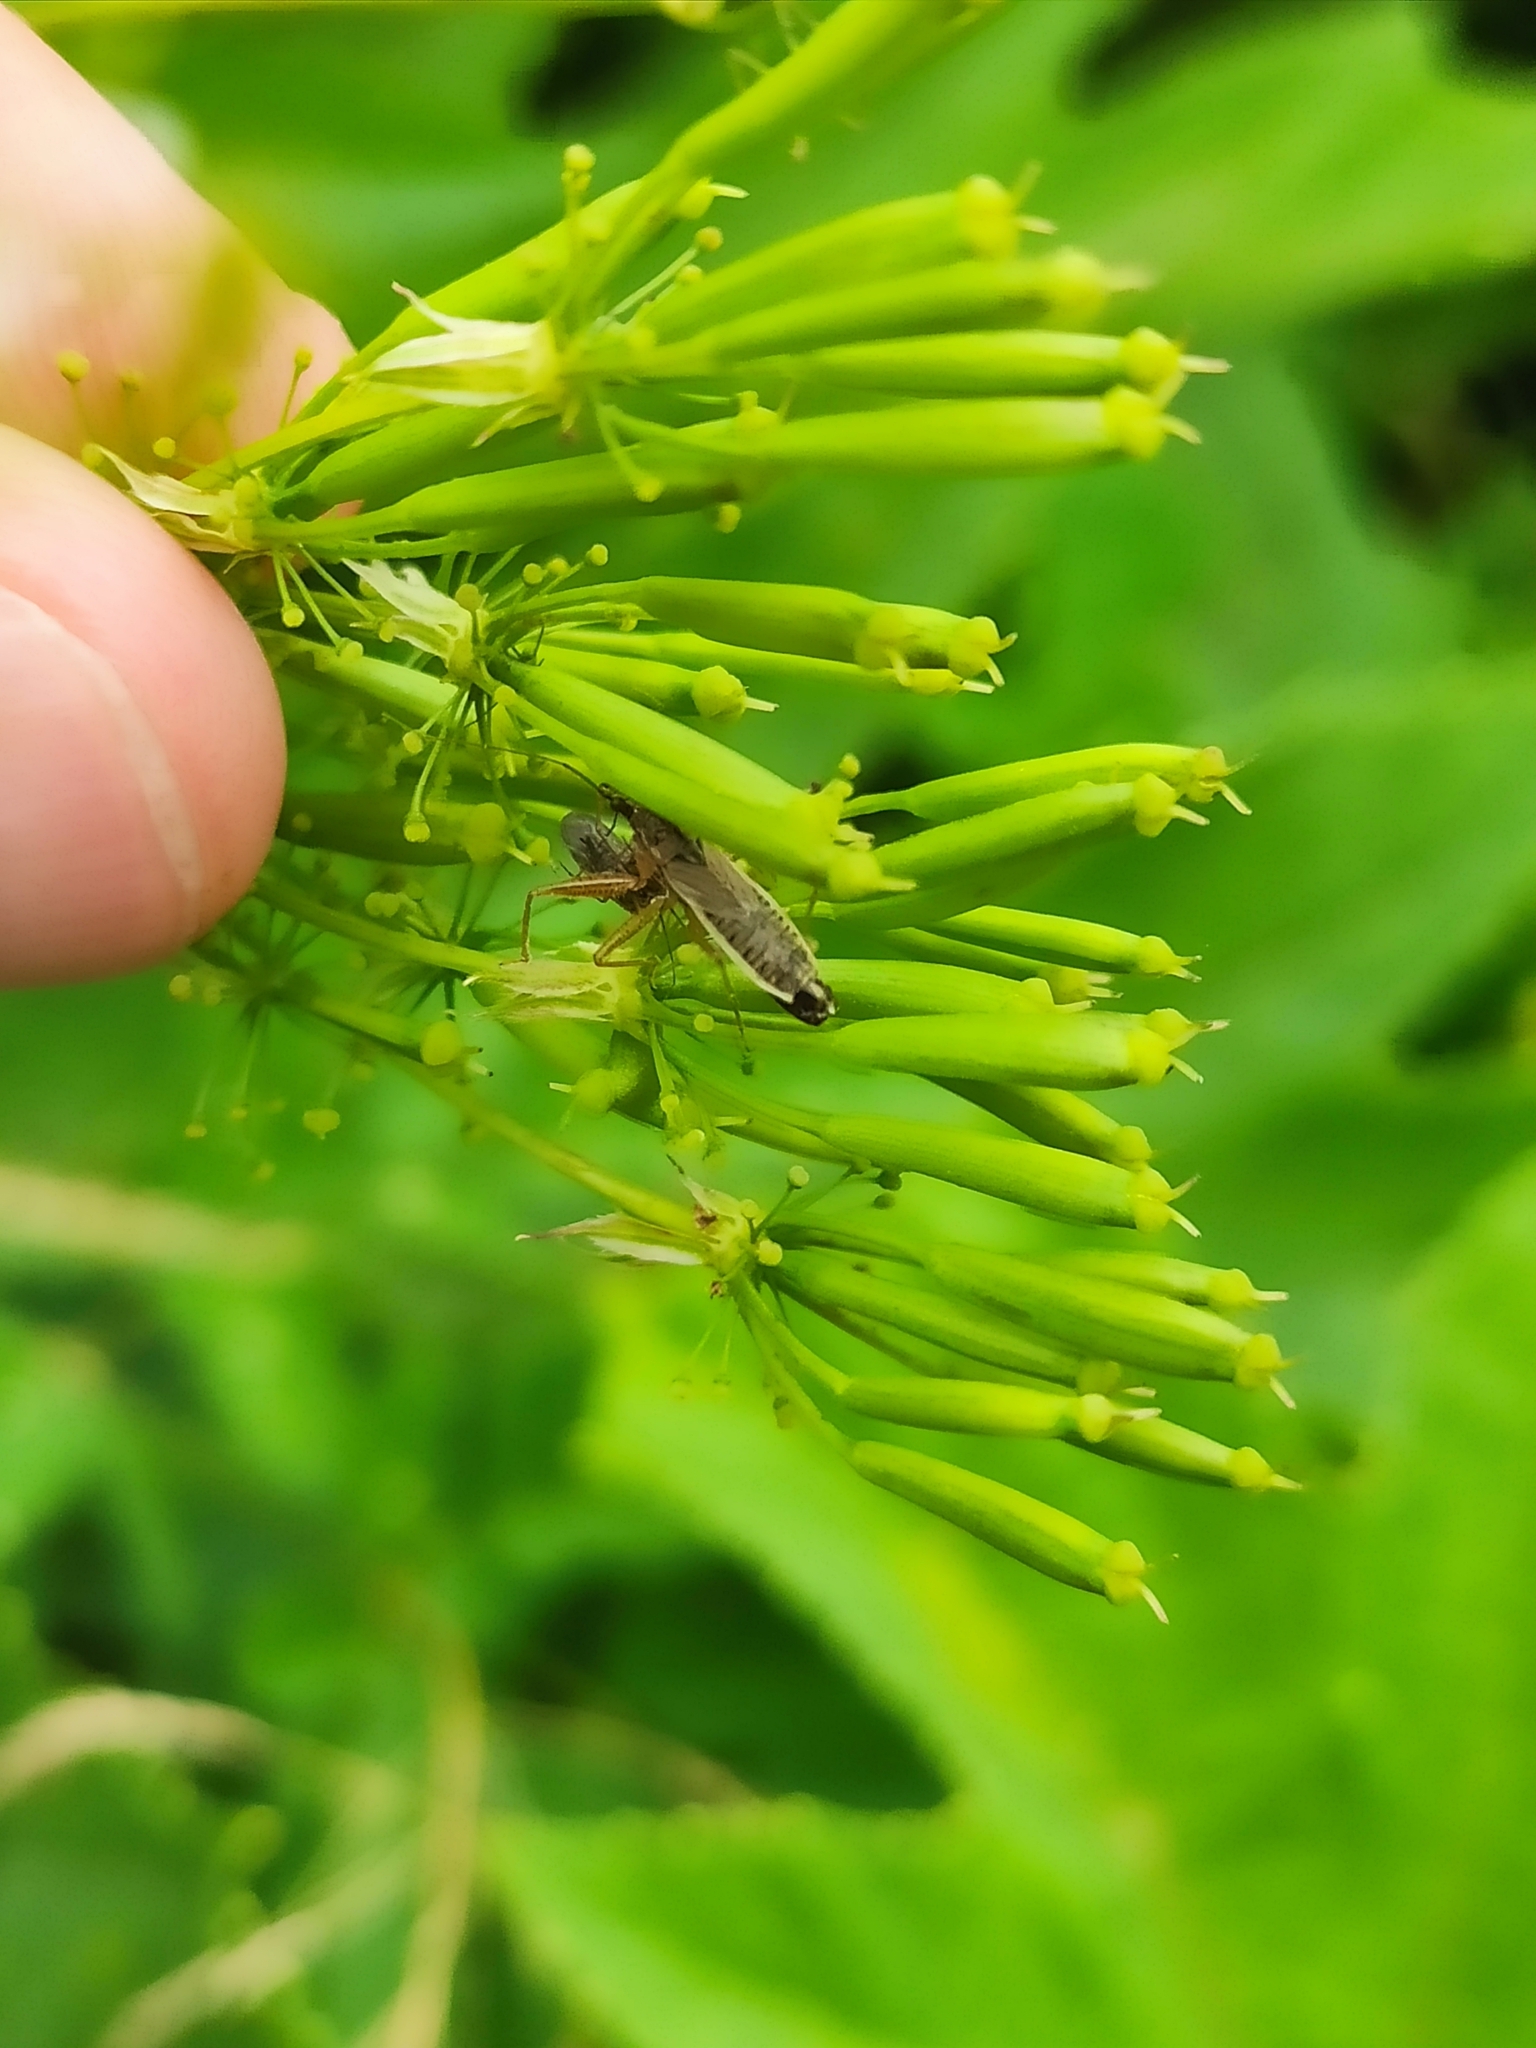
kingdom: Animalia
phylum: Arthropoda
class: Insecta
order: Hemiptera
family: Nabidae
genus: Nabis
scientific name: Nabis flavomarginatus
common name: Broad damselbug
